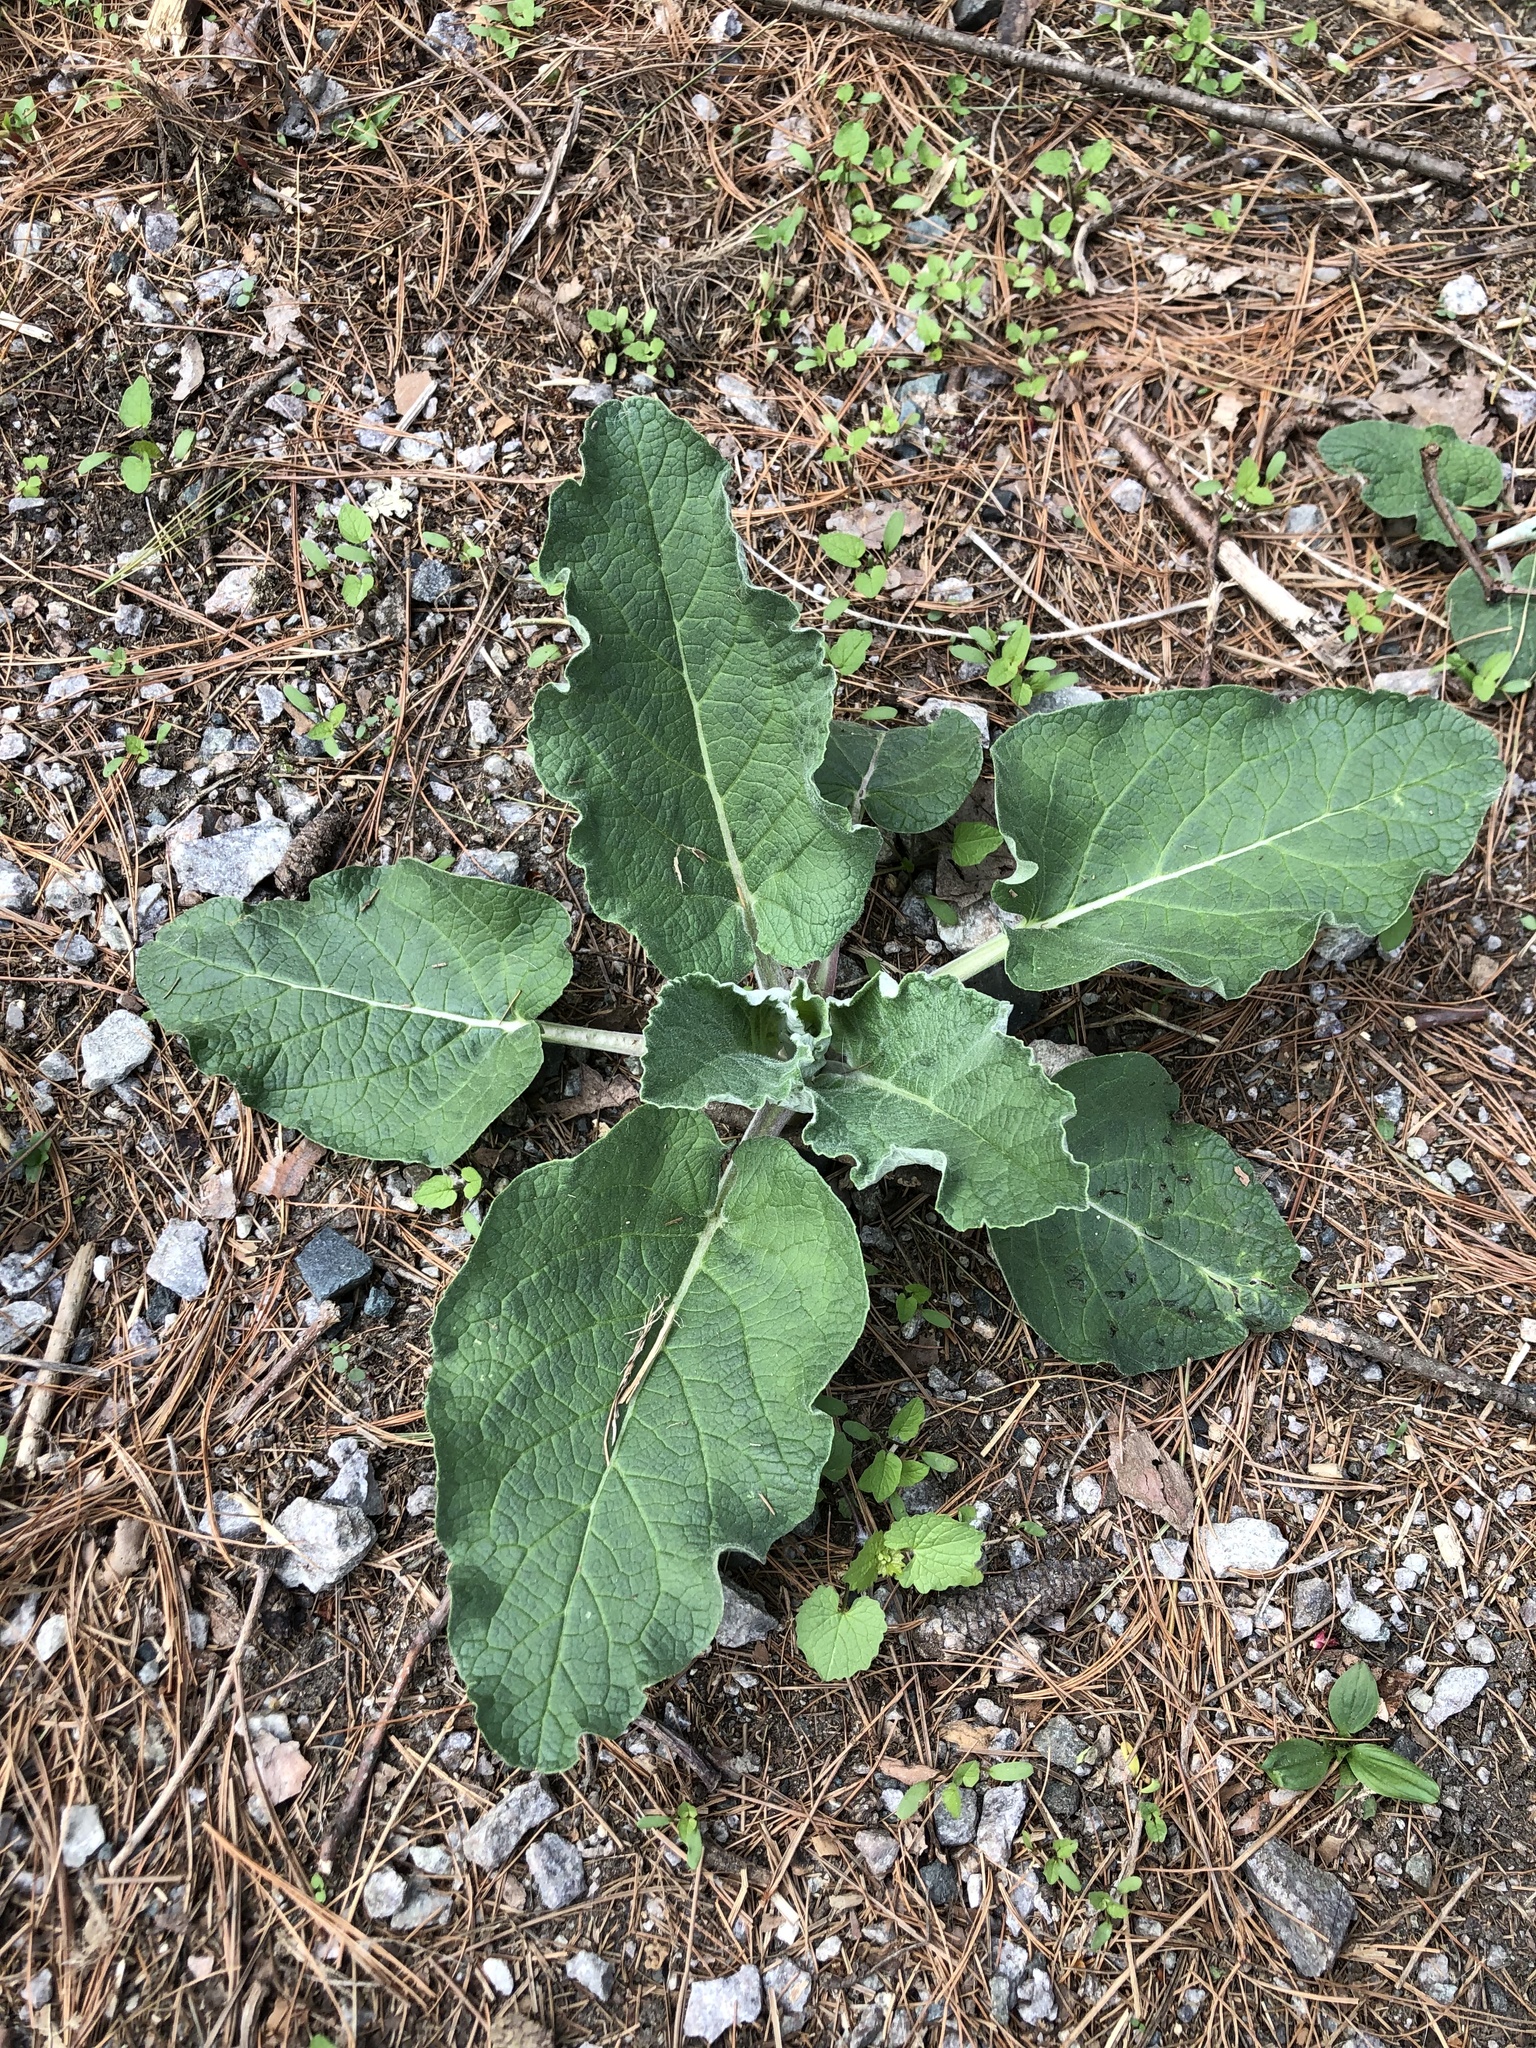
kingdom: Plantae
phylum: Tracheophyta
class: Magnoliopsida
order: Asterales
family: Asteraceae
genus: Arctium
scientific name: Arctium
